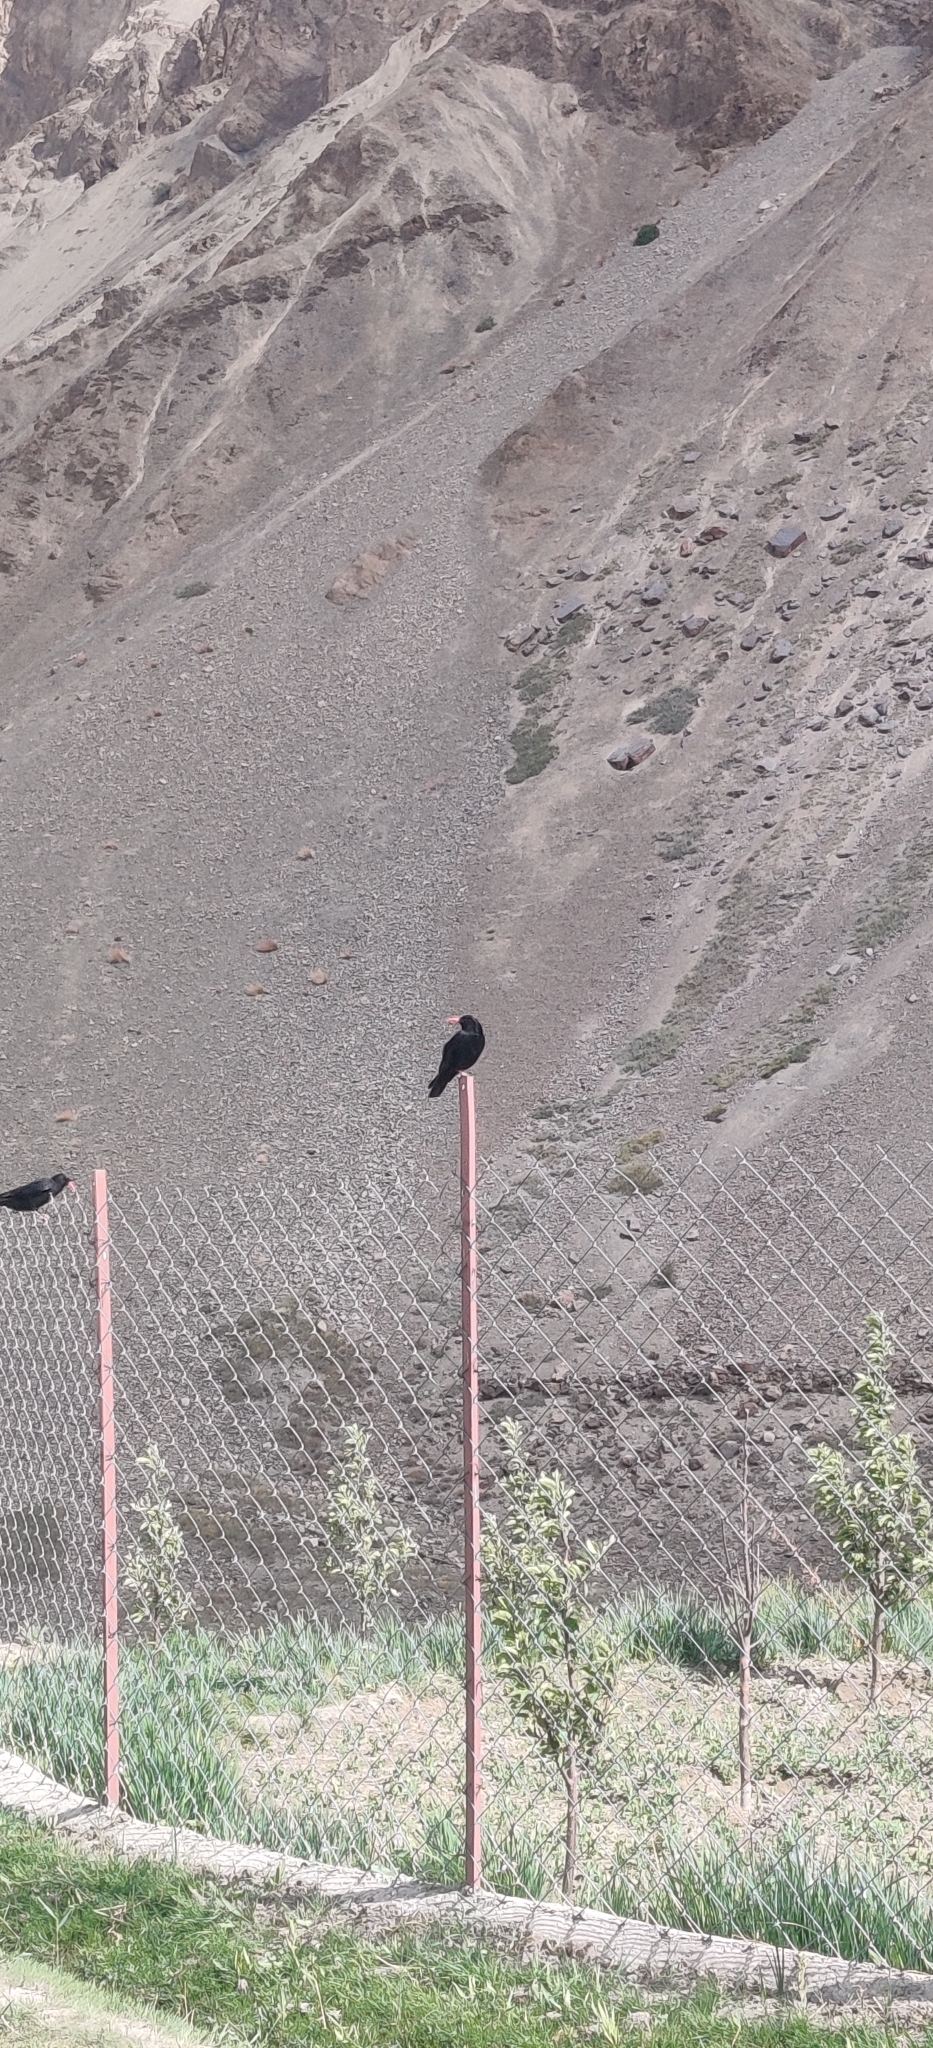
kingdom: Animalia
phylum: Chordata
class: Aves
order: Passeriformes
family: Corvidae
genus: Pyrrhocorax
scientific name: Pyrrhocorax pyrrhocorax
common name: Red-billed chough
